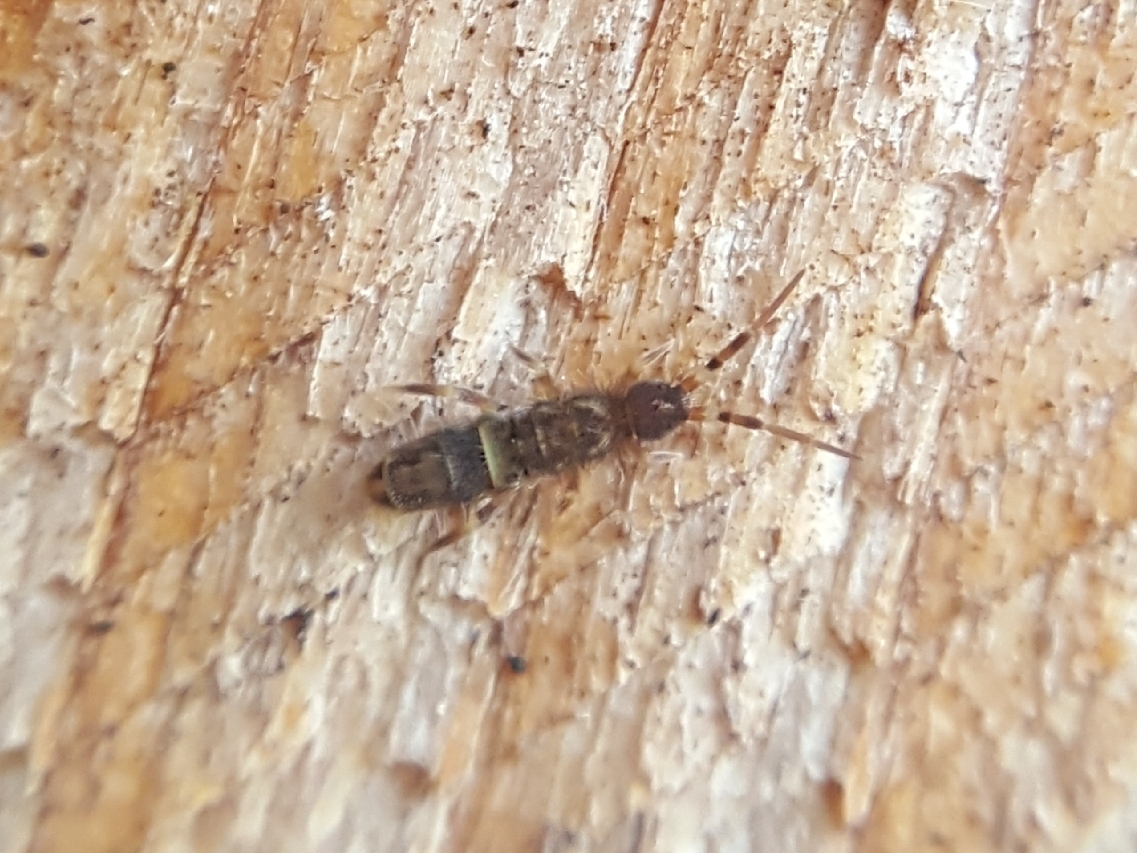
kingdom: Animalia
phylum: Arthropoda
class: Collembola
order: Entomobryomorpha
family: Orchesellidae
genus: Orchesella
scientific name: Orchesella cincta
